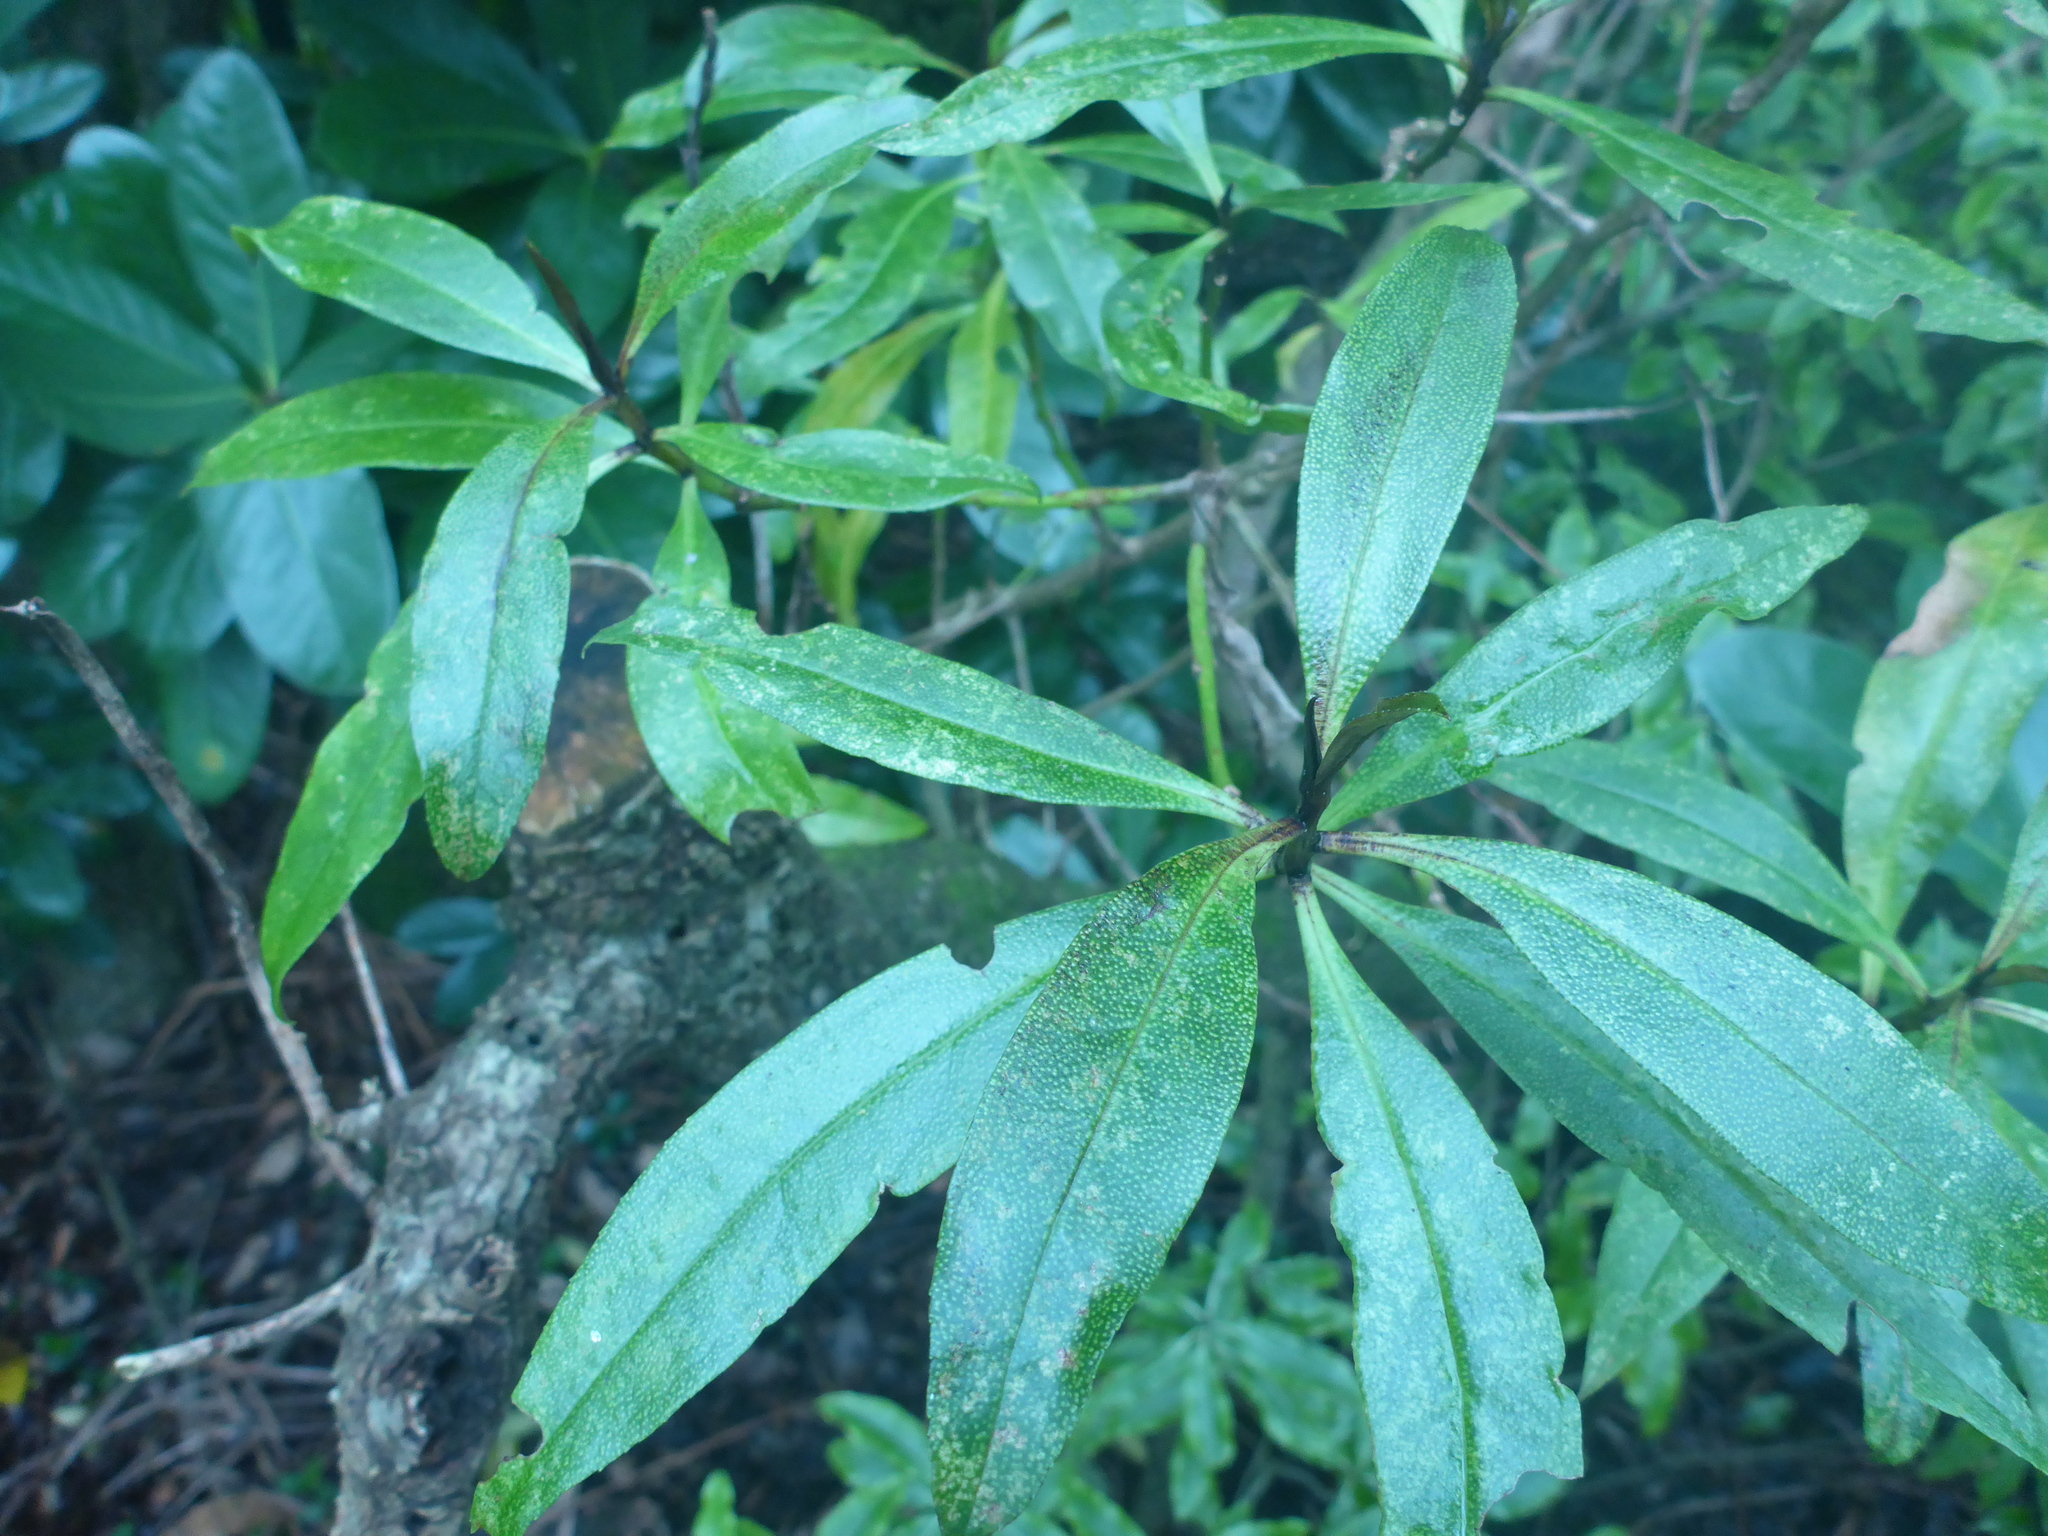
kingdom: Plantae
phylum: Tracheophyta
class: Magnoliopsida
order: Lamiales
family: Scrophulariaceae
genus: Myoporum
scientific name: Myoporum laetum
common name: Ngaio tree
